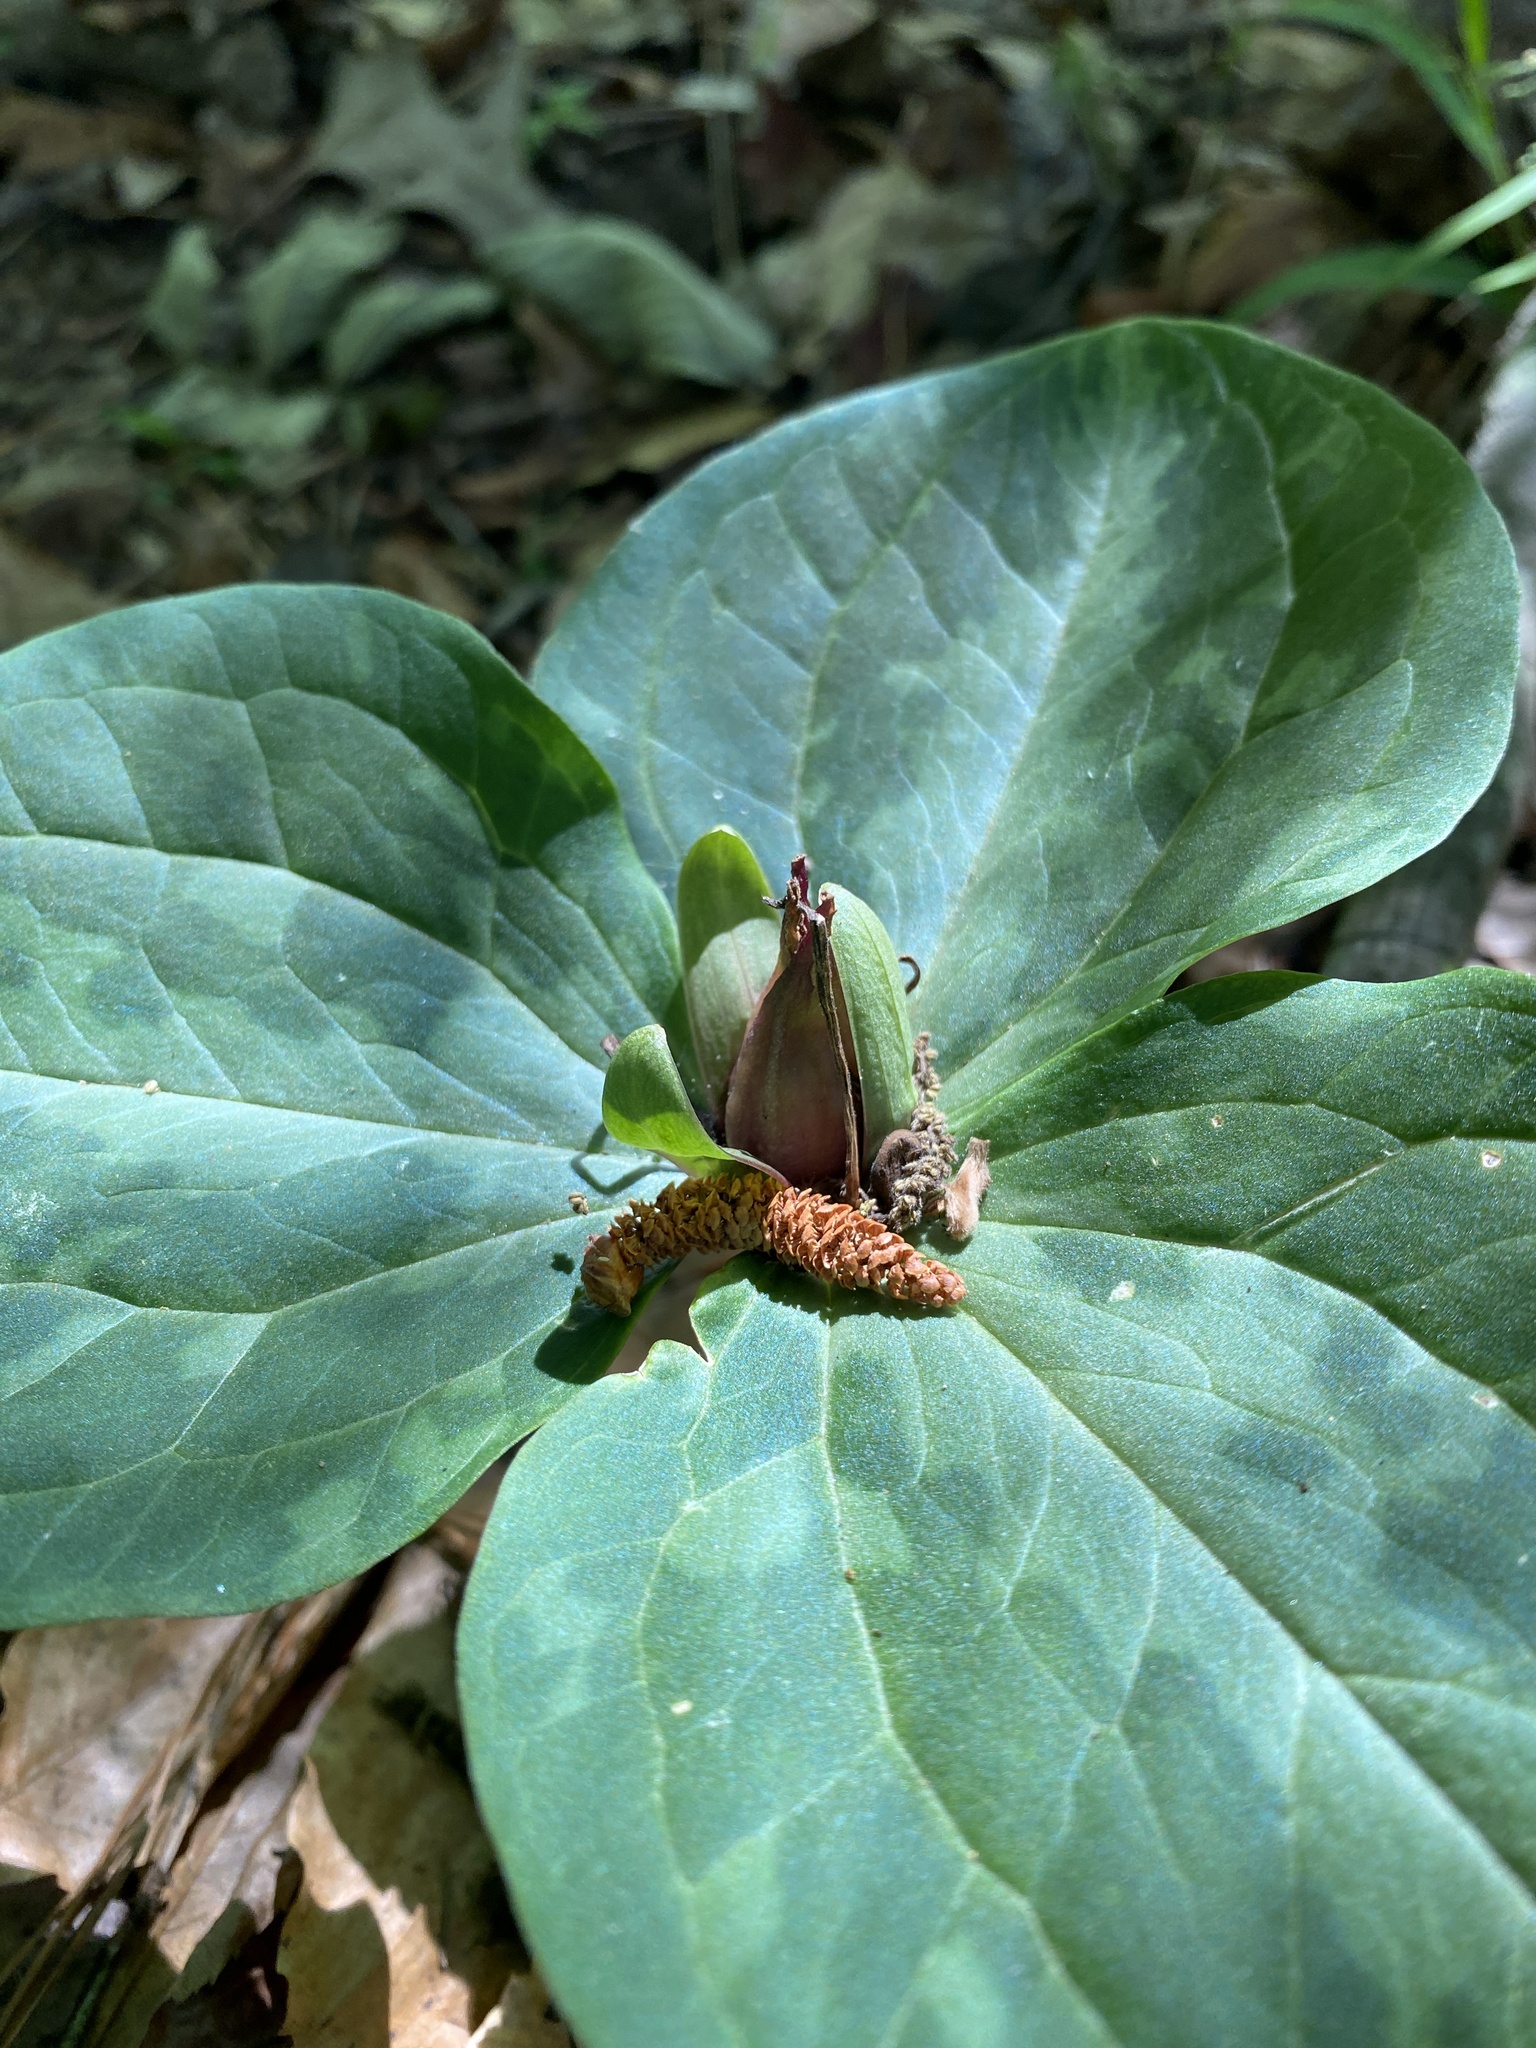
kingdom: Plantae
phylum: Tracheophyta
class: Liliopsida
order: Liliales
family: Melanthiaceae
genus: Trillium
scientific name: Trillium foetidissimum
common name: Mississippi river trillium
